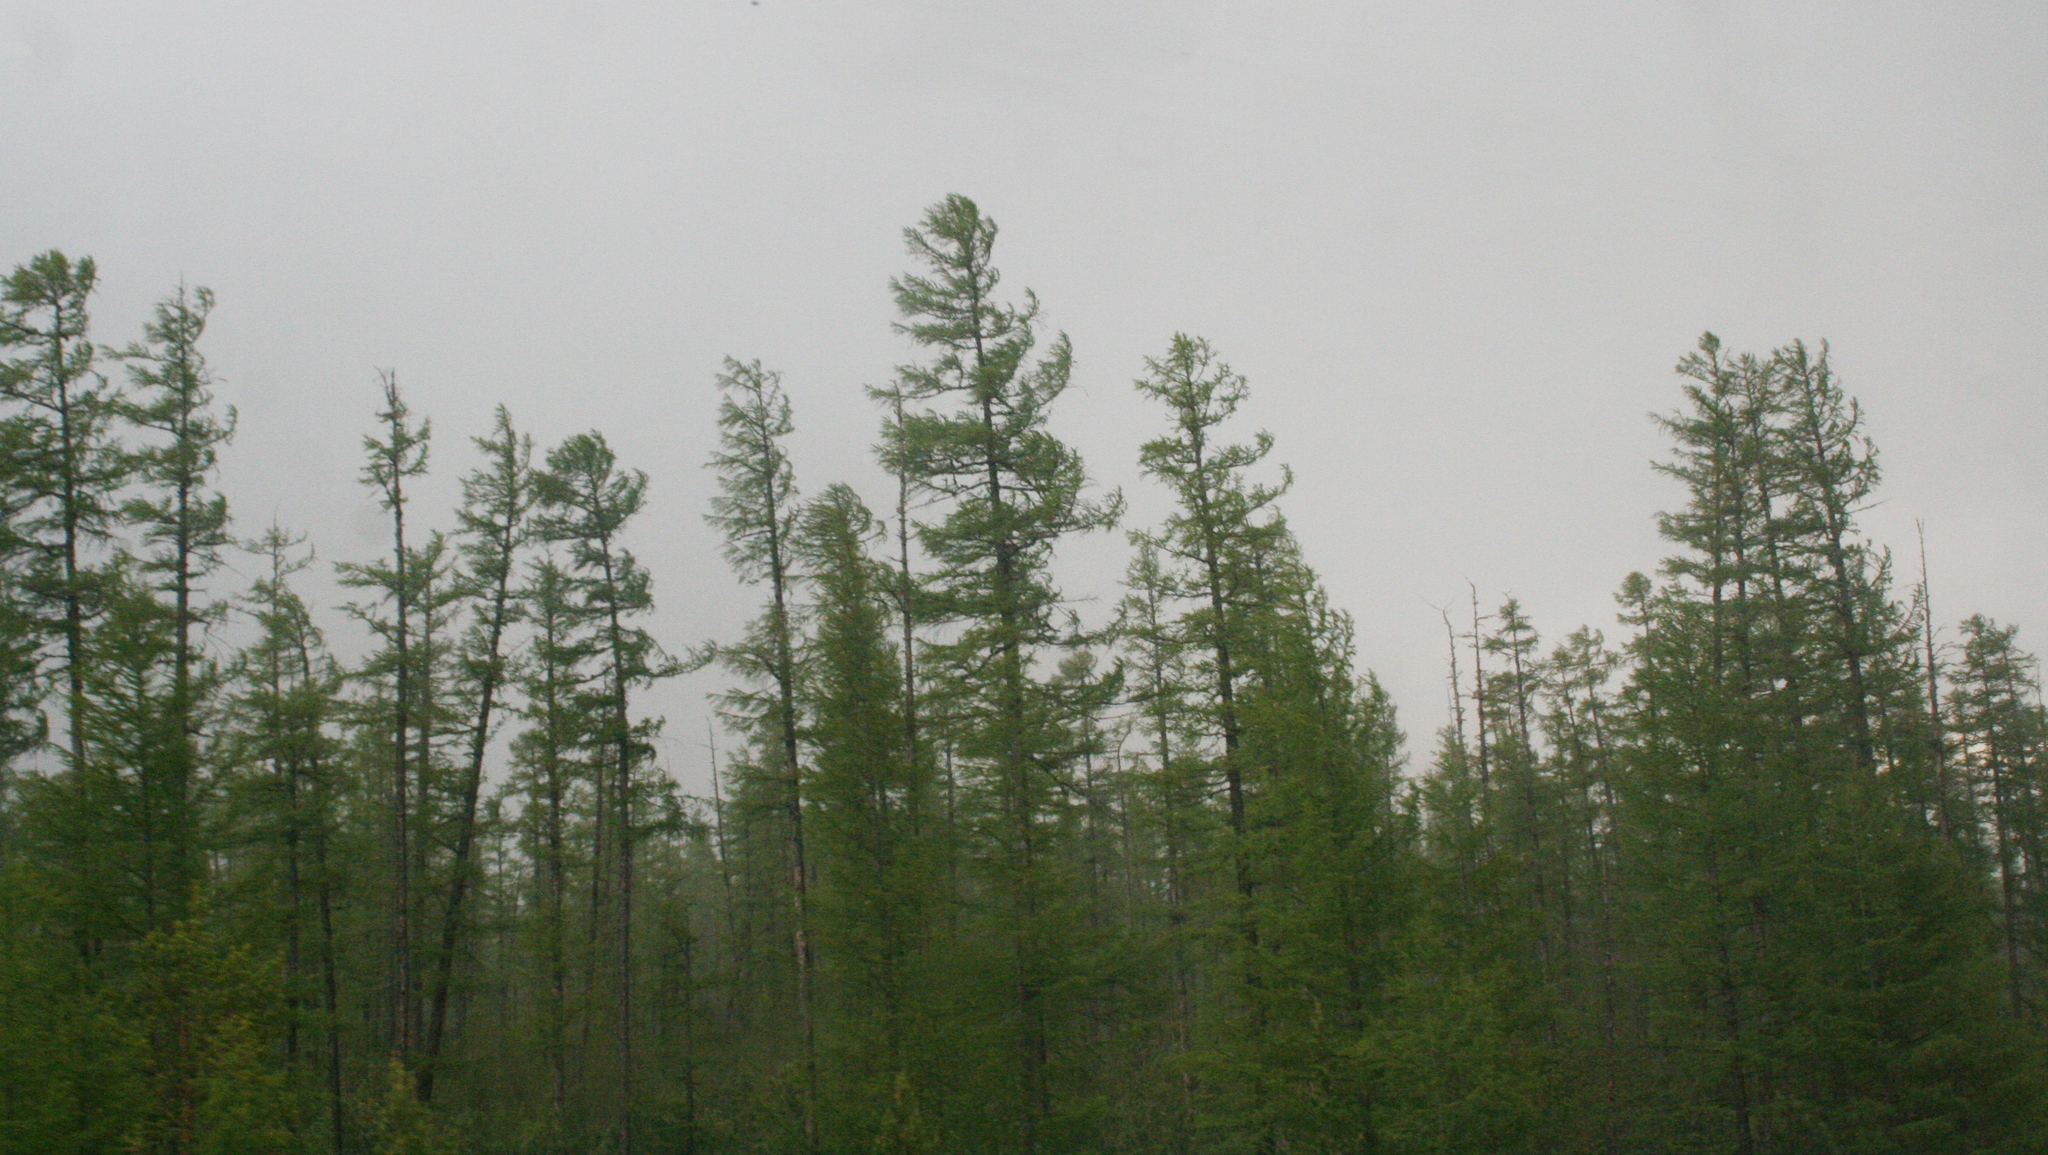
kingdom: Plantae
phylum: Tracheophyta
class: Pinopsida
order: Pinales
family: Pinaceae
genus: Larix
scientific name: Larix gmelinii
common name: Dahurian larch
